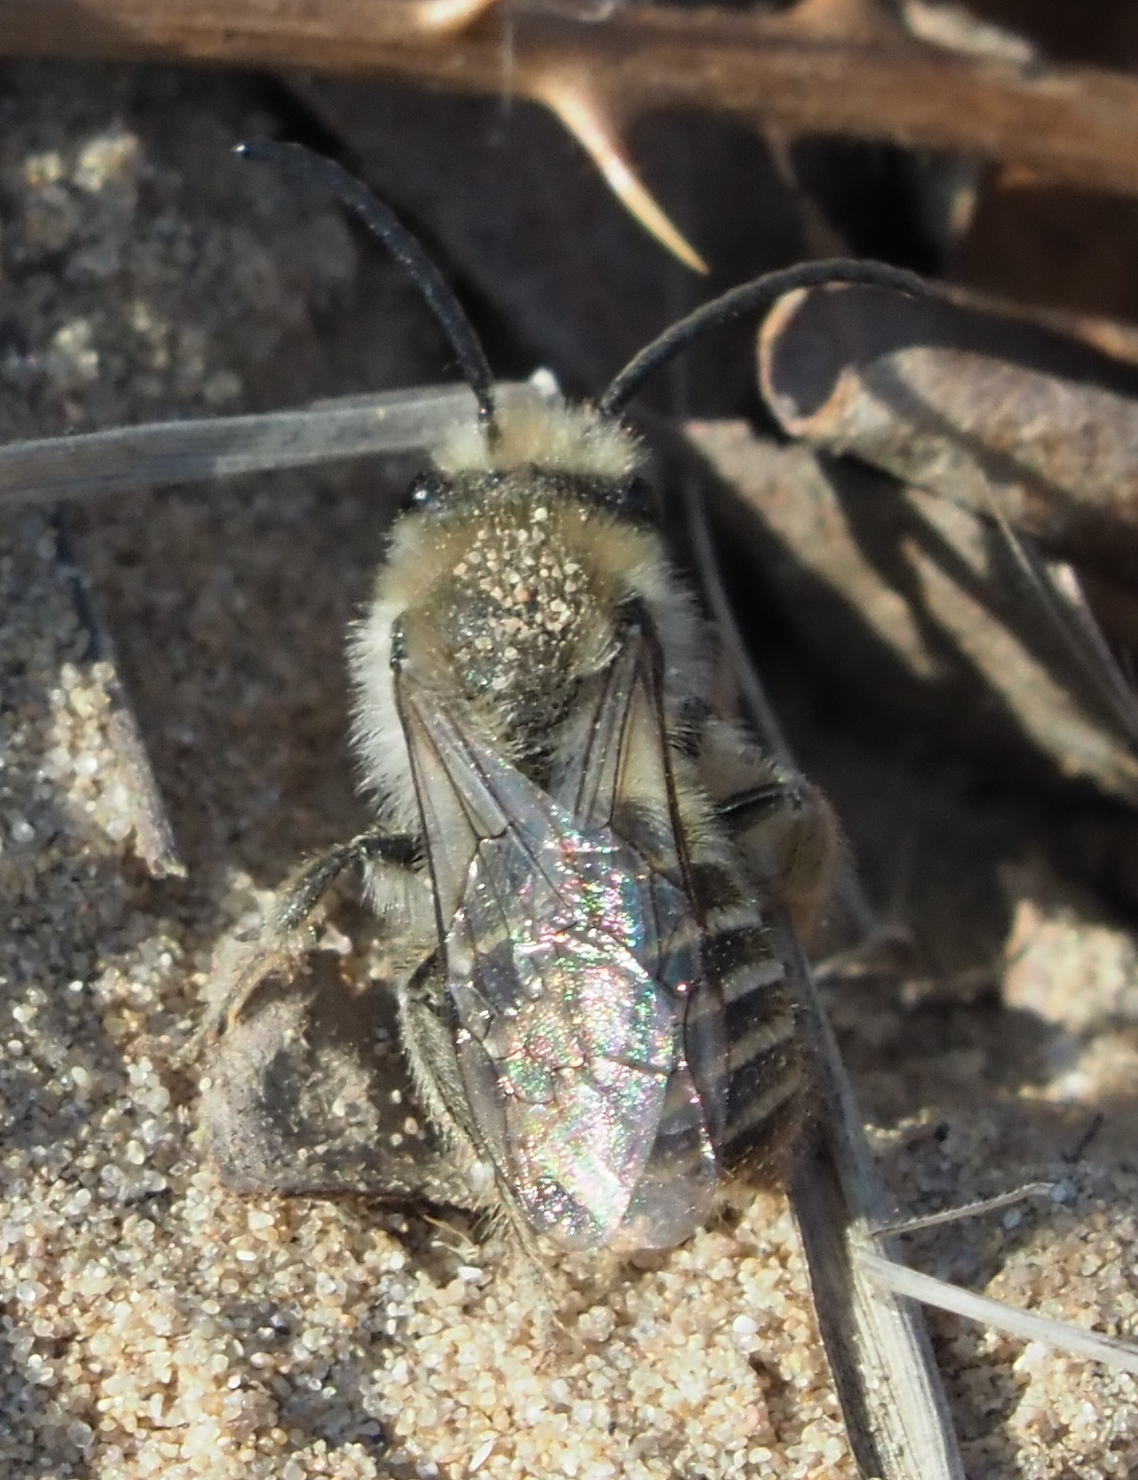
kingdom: Animalia
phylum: Arthropoda
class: Insecta
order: Hymenoptera
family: Colletidae
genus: Colletes
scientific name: Colletes inaequalis
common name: Unequal cellophane bee
